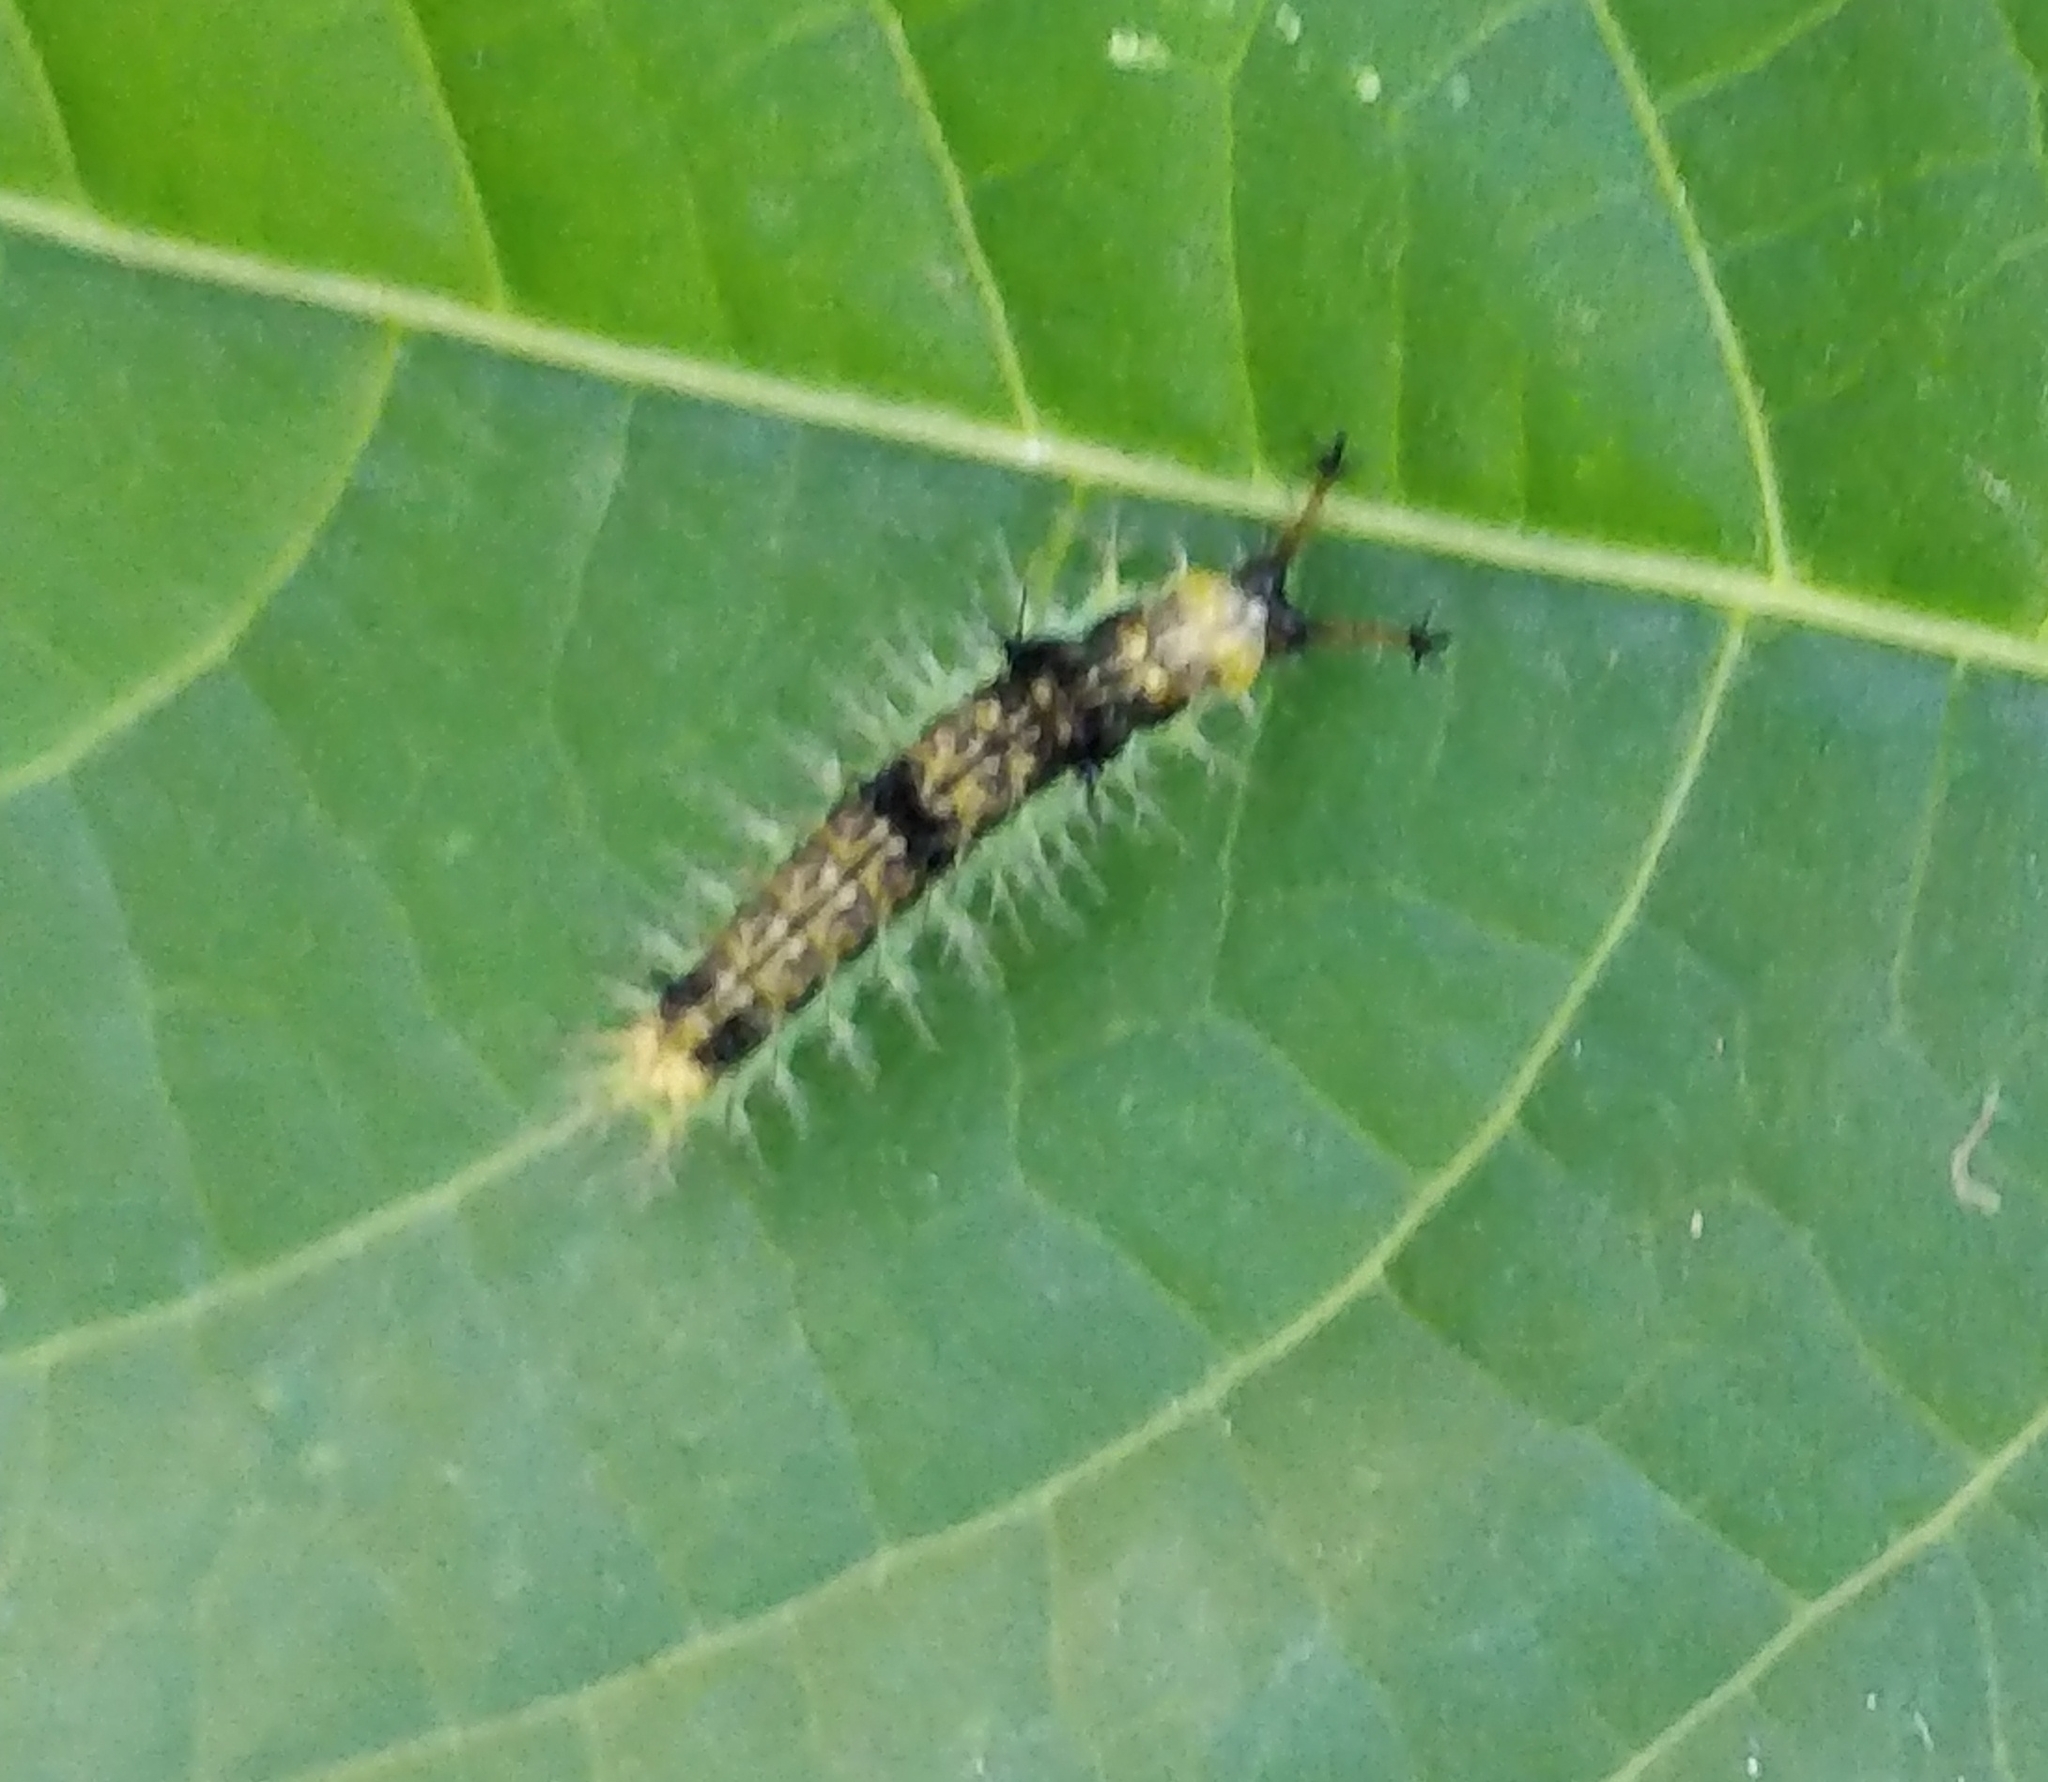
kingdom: Animalia
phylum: Arthropoda
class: Insecta
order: Lepidoptera
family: Nymphalidae
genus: Ariadne
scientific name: Ariadne merione
